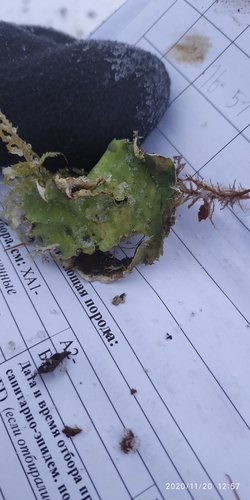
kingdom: Fungi
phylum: Ascomycota
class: Lecanoromycetes
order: Peltigerales
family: Peltigeraceae
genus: Peltigera
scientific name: Peltigera
